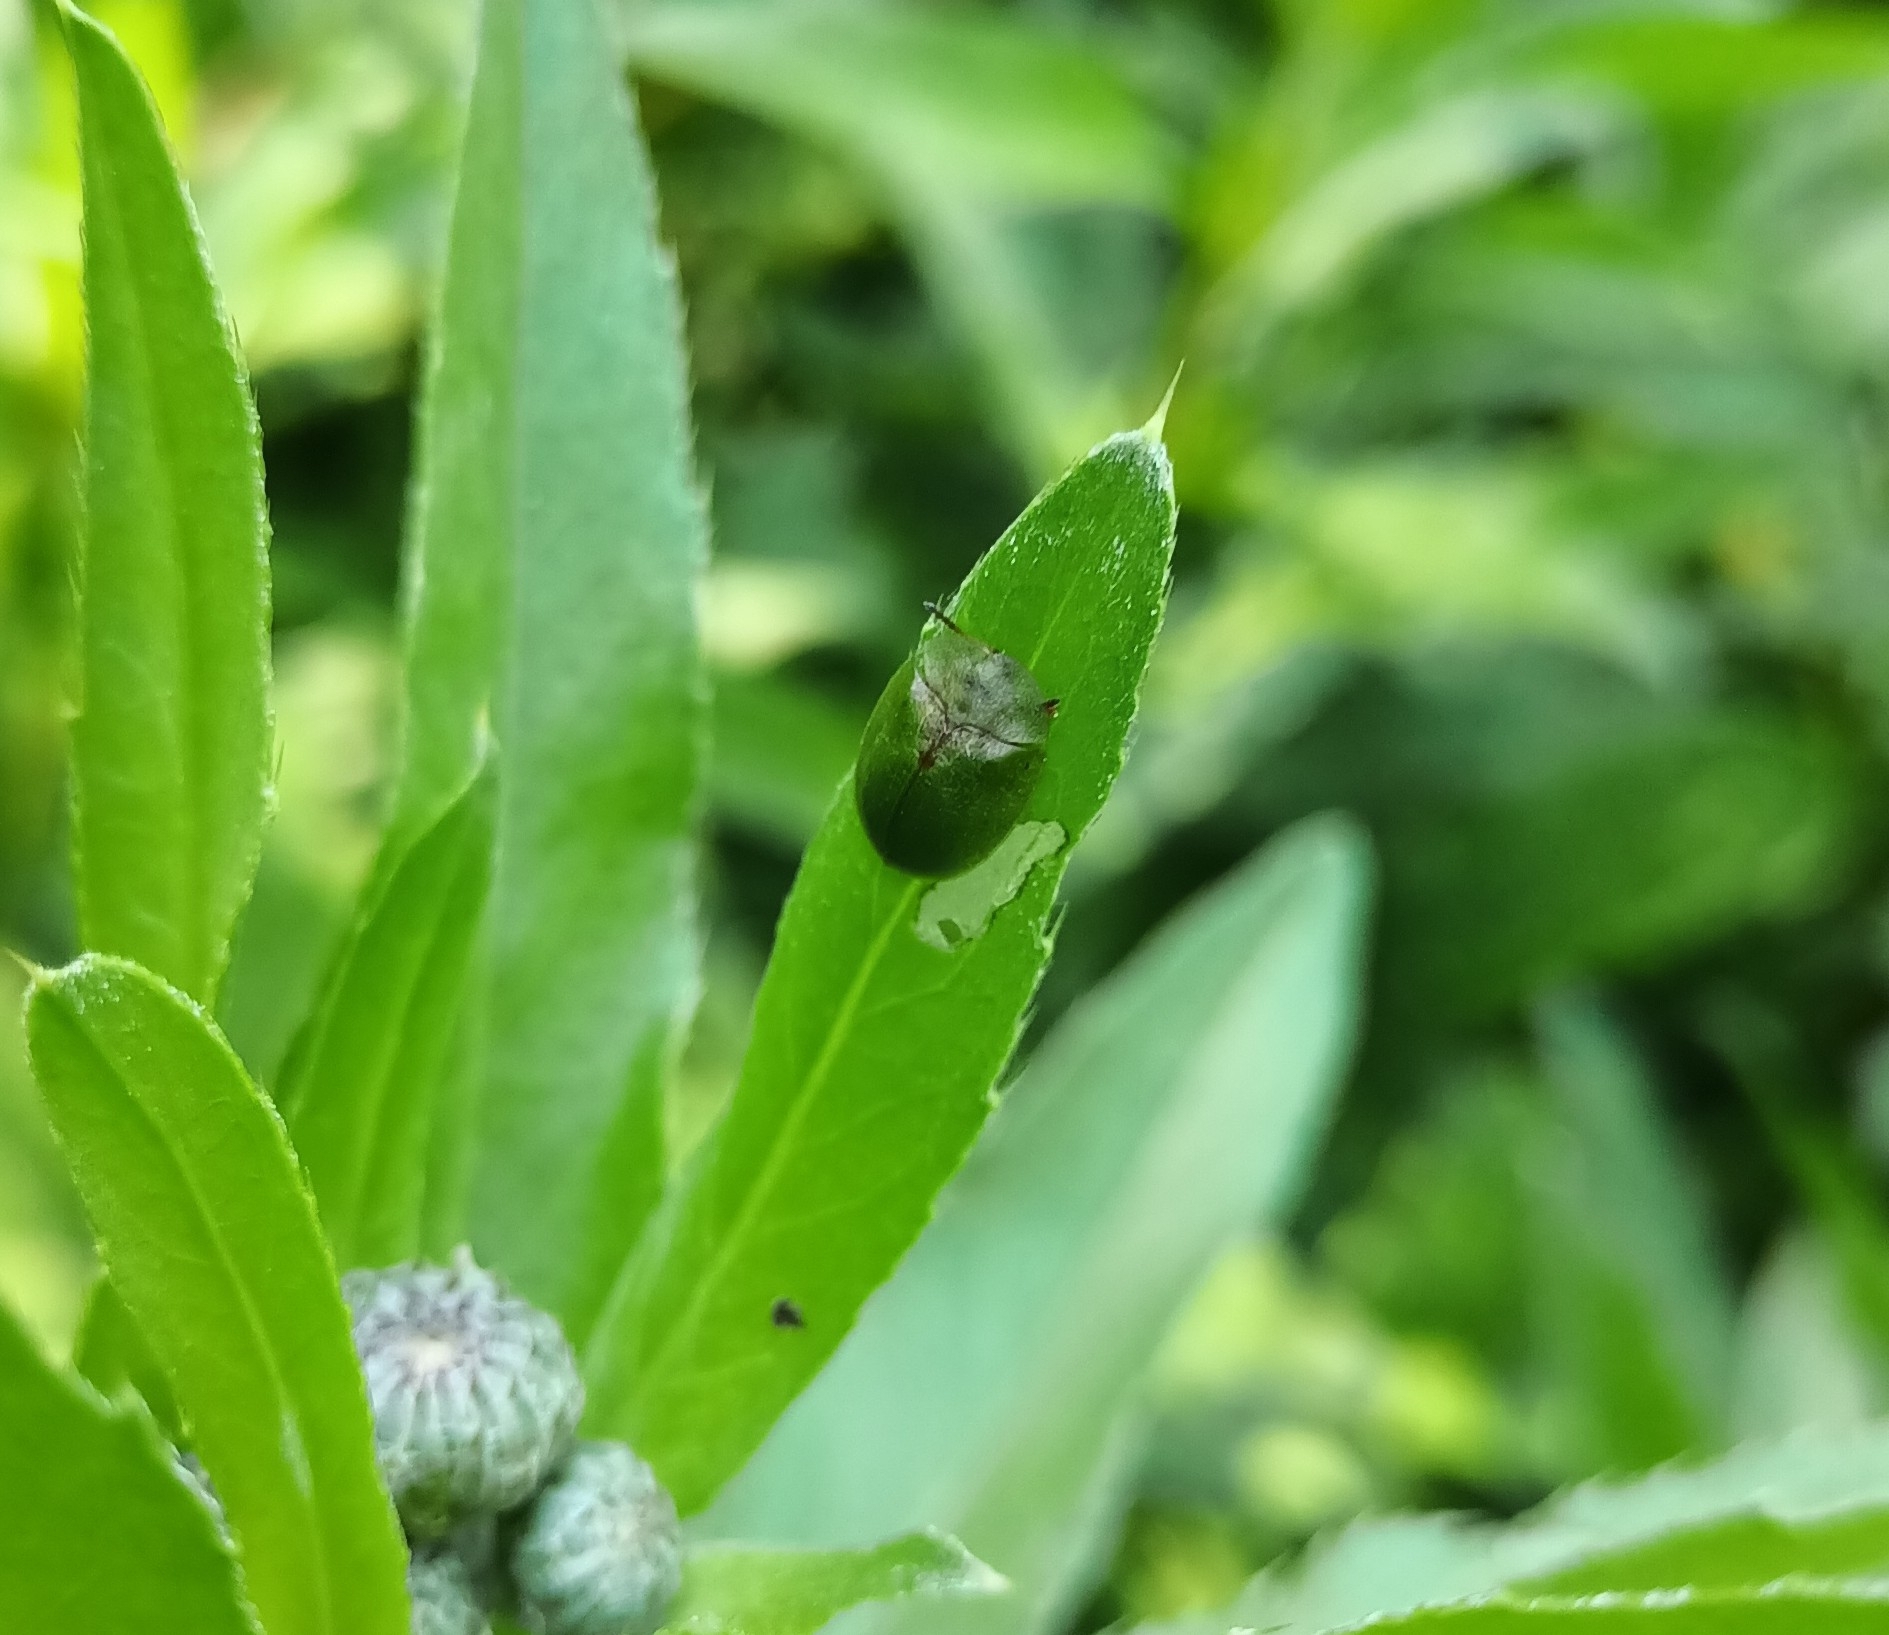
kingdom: Animalia
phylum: Arthropoda
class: Insecta
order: Coleoptera
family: Chrysomelidae
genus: Cassida
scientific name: Cassida rubiginosa
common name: Thistle tortoise beetle
